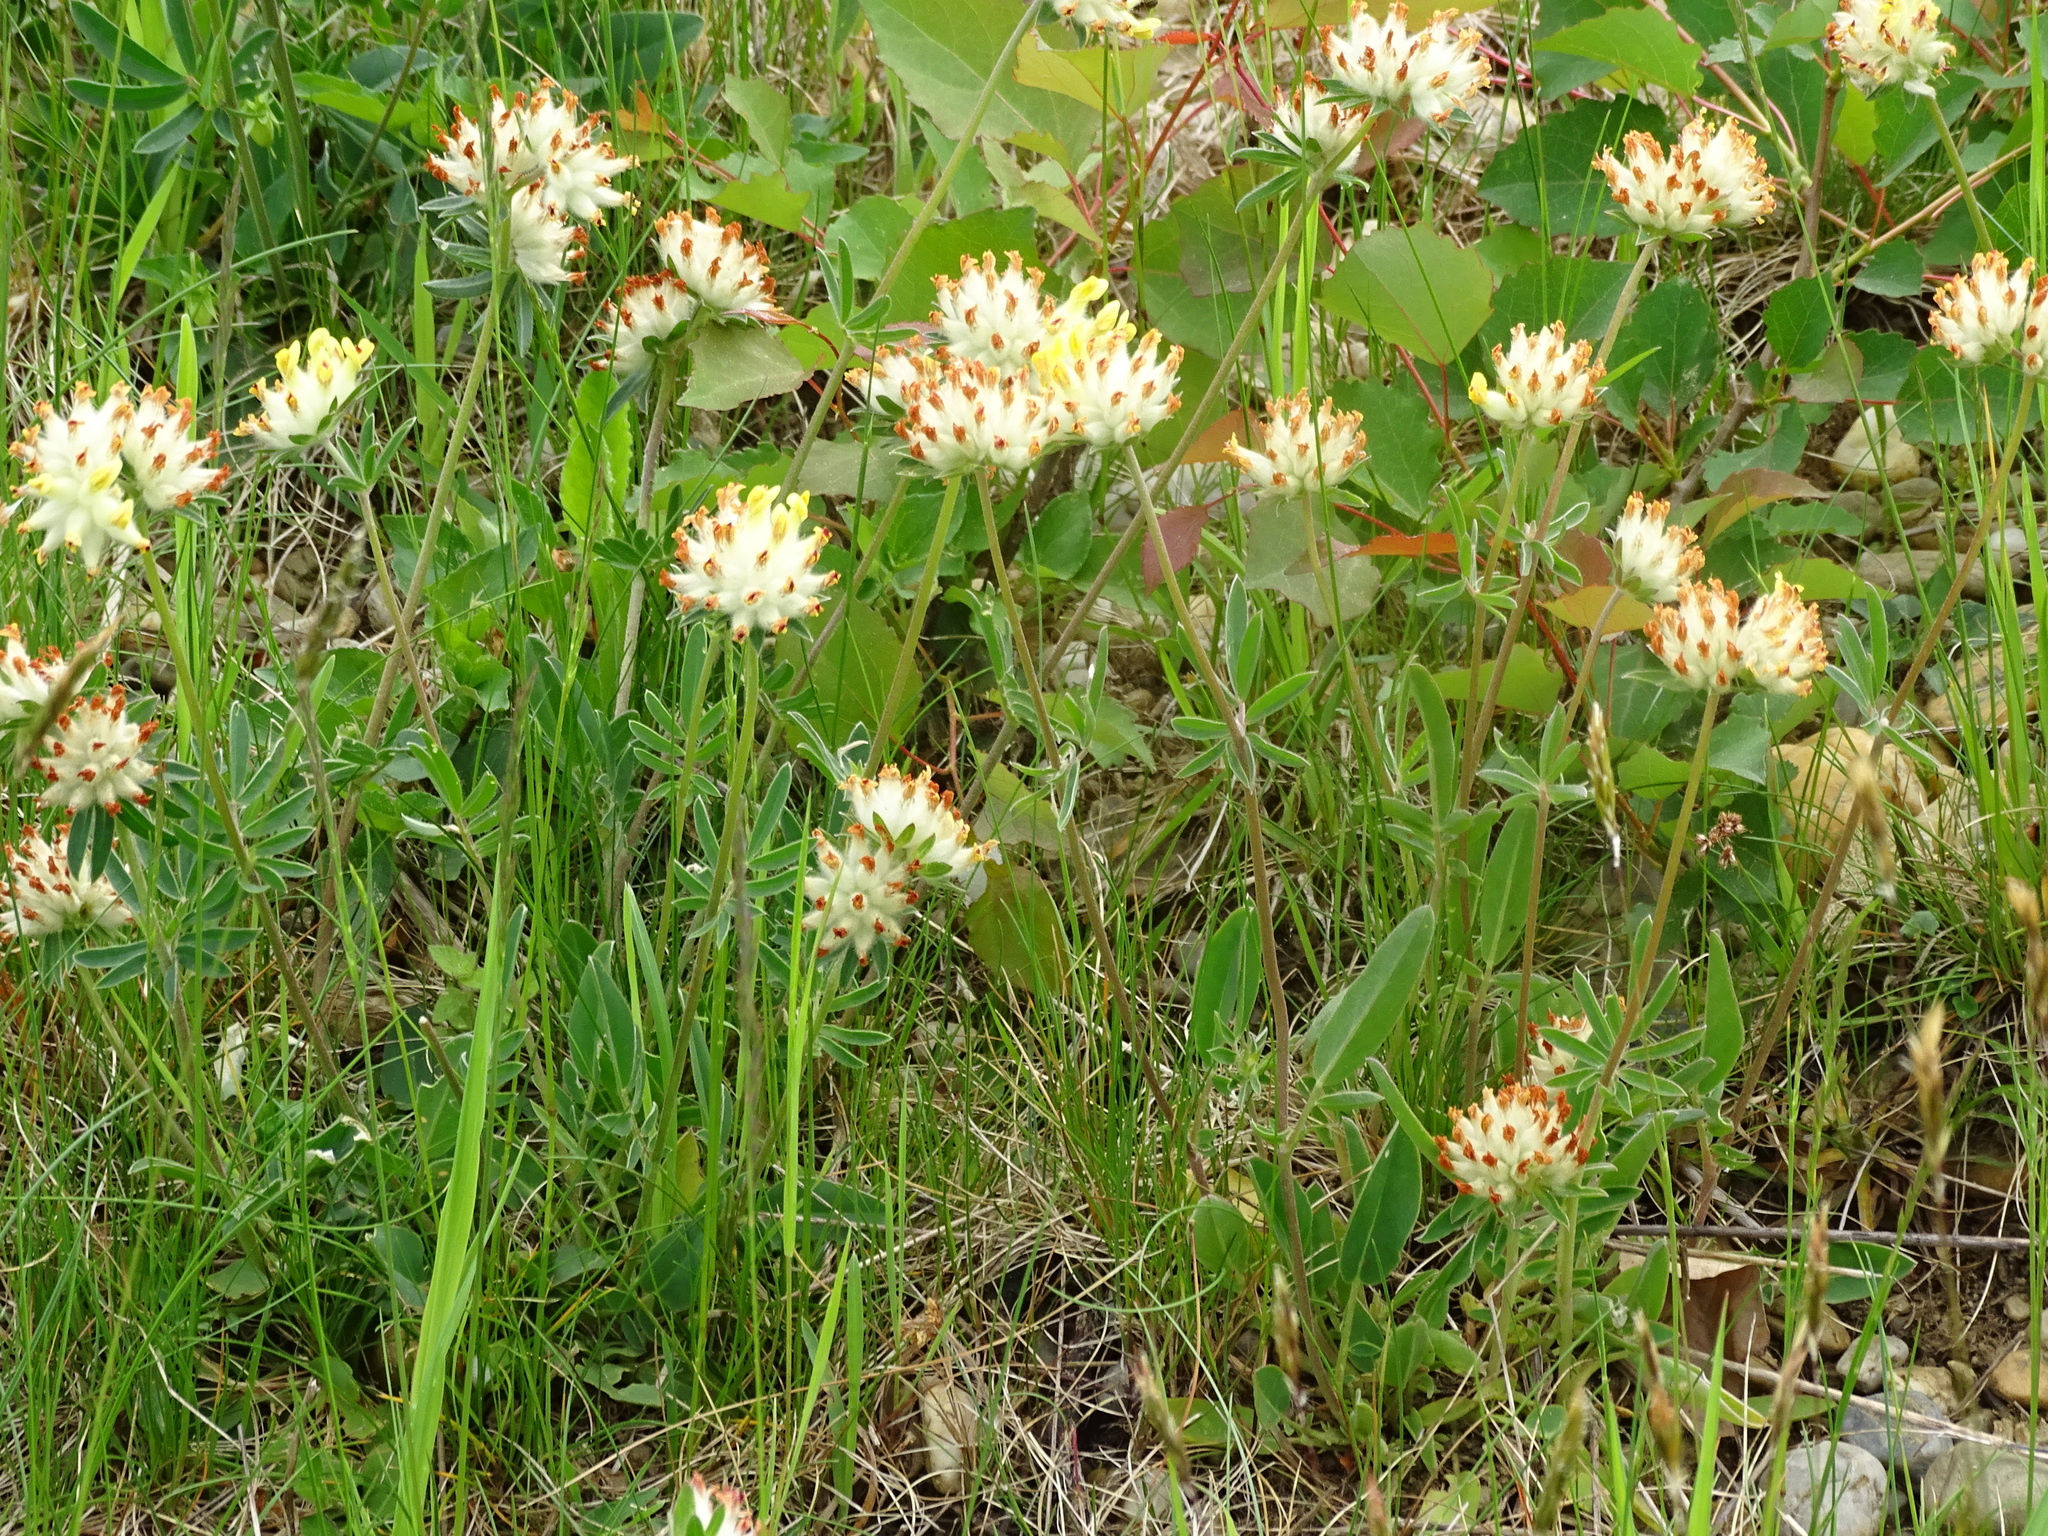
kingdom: Plantae
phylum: Tracheophyta
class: Magnoliopsida
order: Fabales
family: Fabaceae
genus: Anthyllis
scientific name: Anthyllis vulneraria
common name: Kidney vetch
